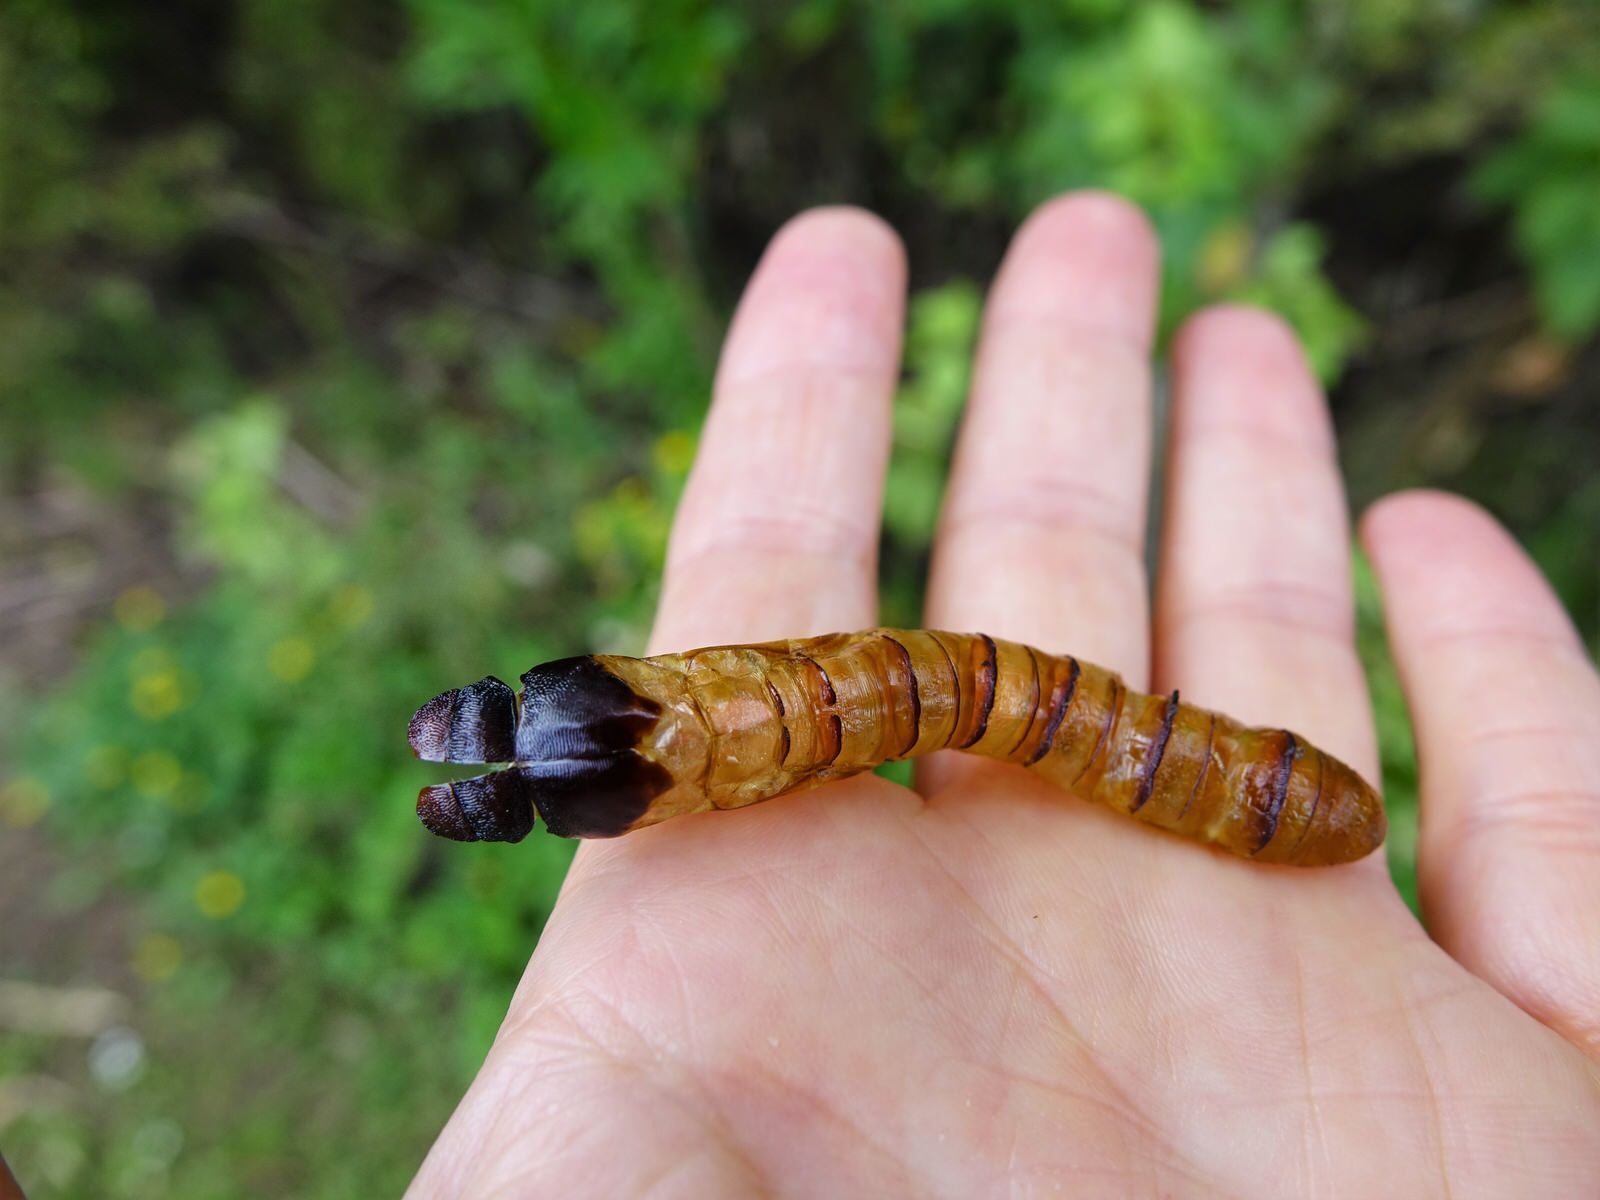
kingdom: Animalia
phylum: Arthropoda
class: Insecta
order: Lepidoptera
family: Hepialidae
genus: Aenetus
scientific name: Aenetus virescens
